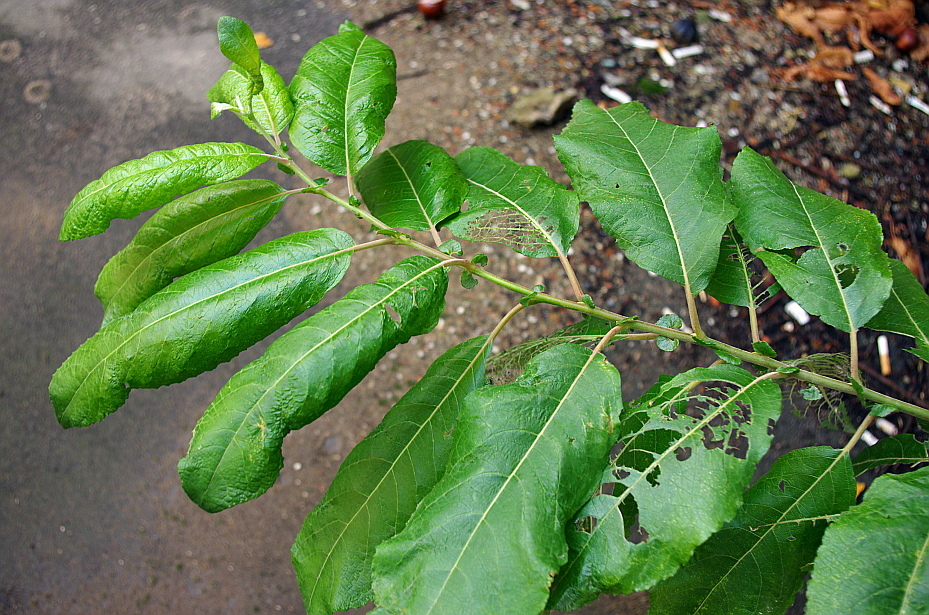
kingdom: Plantae
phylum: Tracheophyta
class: Magnoliopsida
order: Malpighiales
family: Salicaceae
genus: Salix
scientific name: Salix caprea
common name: Goat willow
